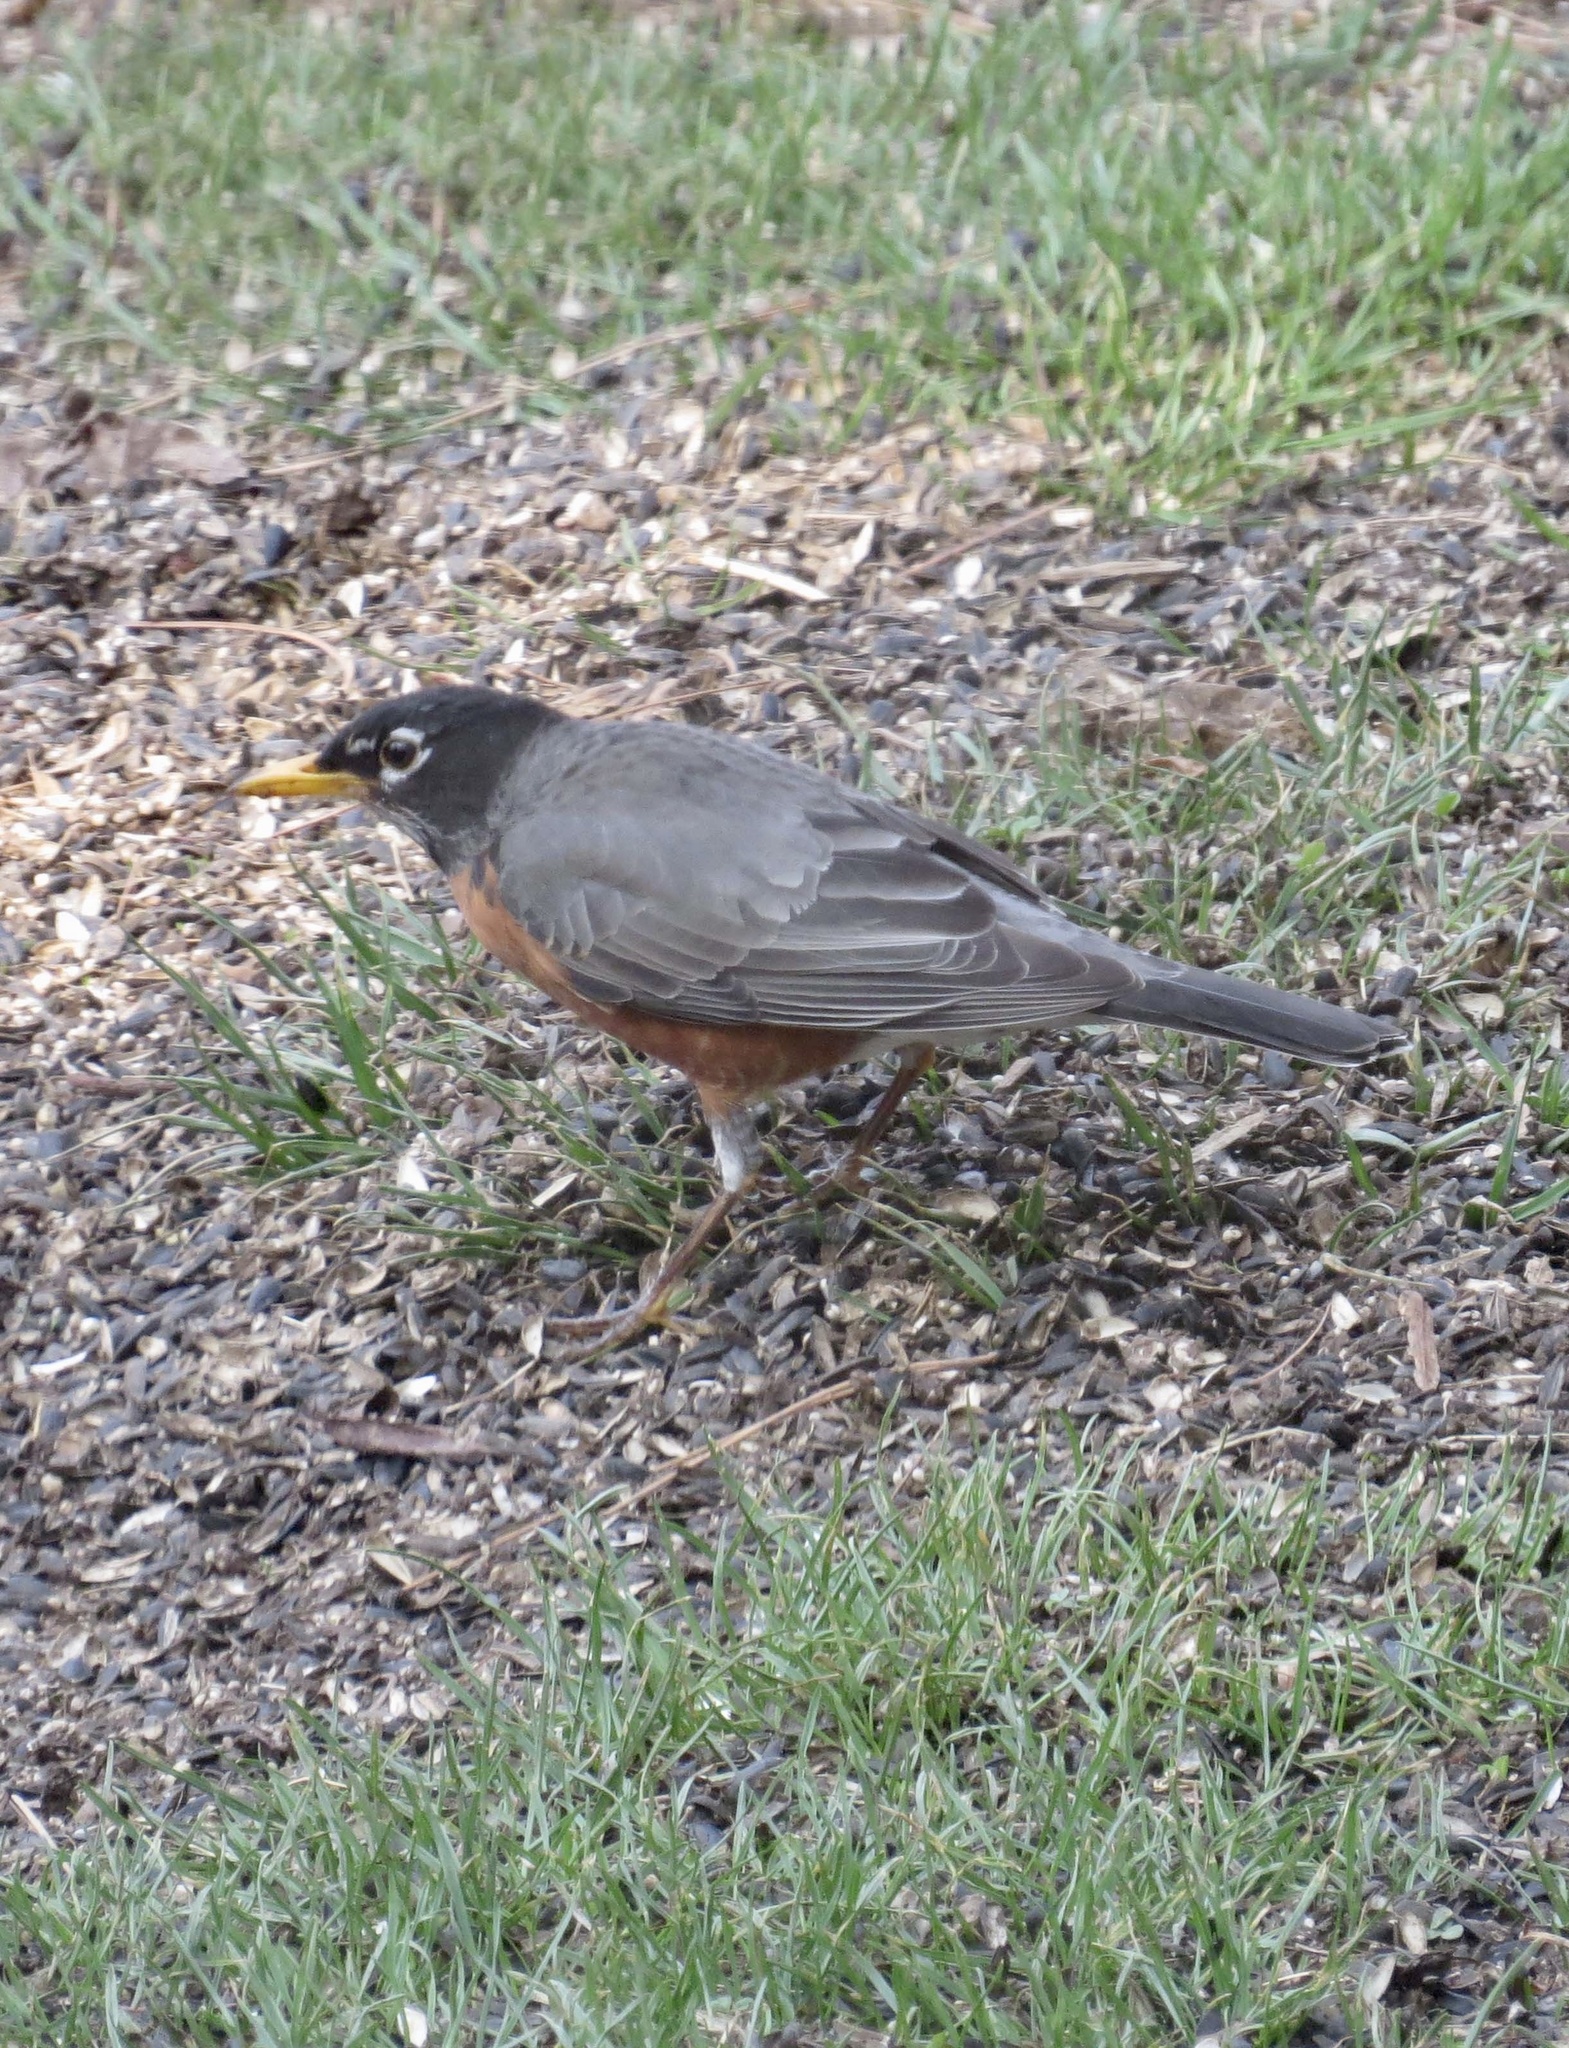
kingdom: Animalia
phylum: Chordata
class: Aves
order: Passeriformes
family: Turdidae
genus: Turdus
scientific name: Turdus migratorius
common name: American robin
